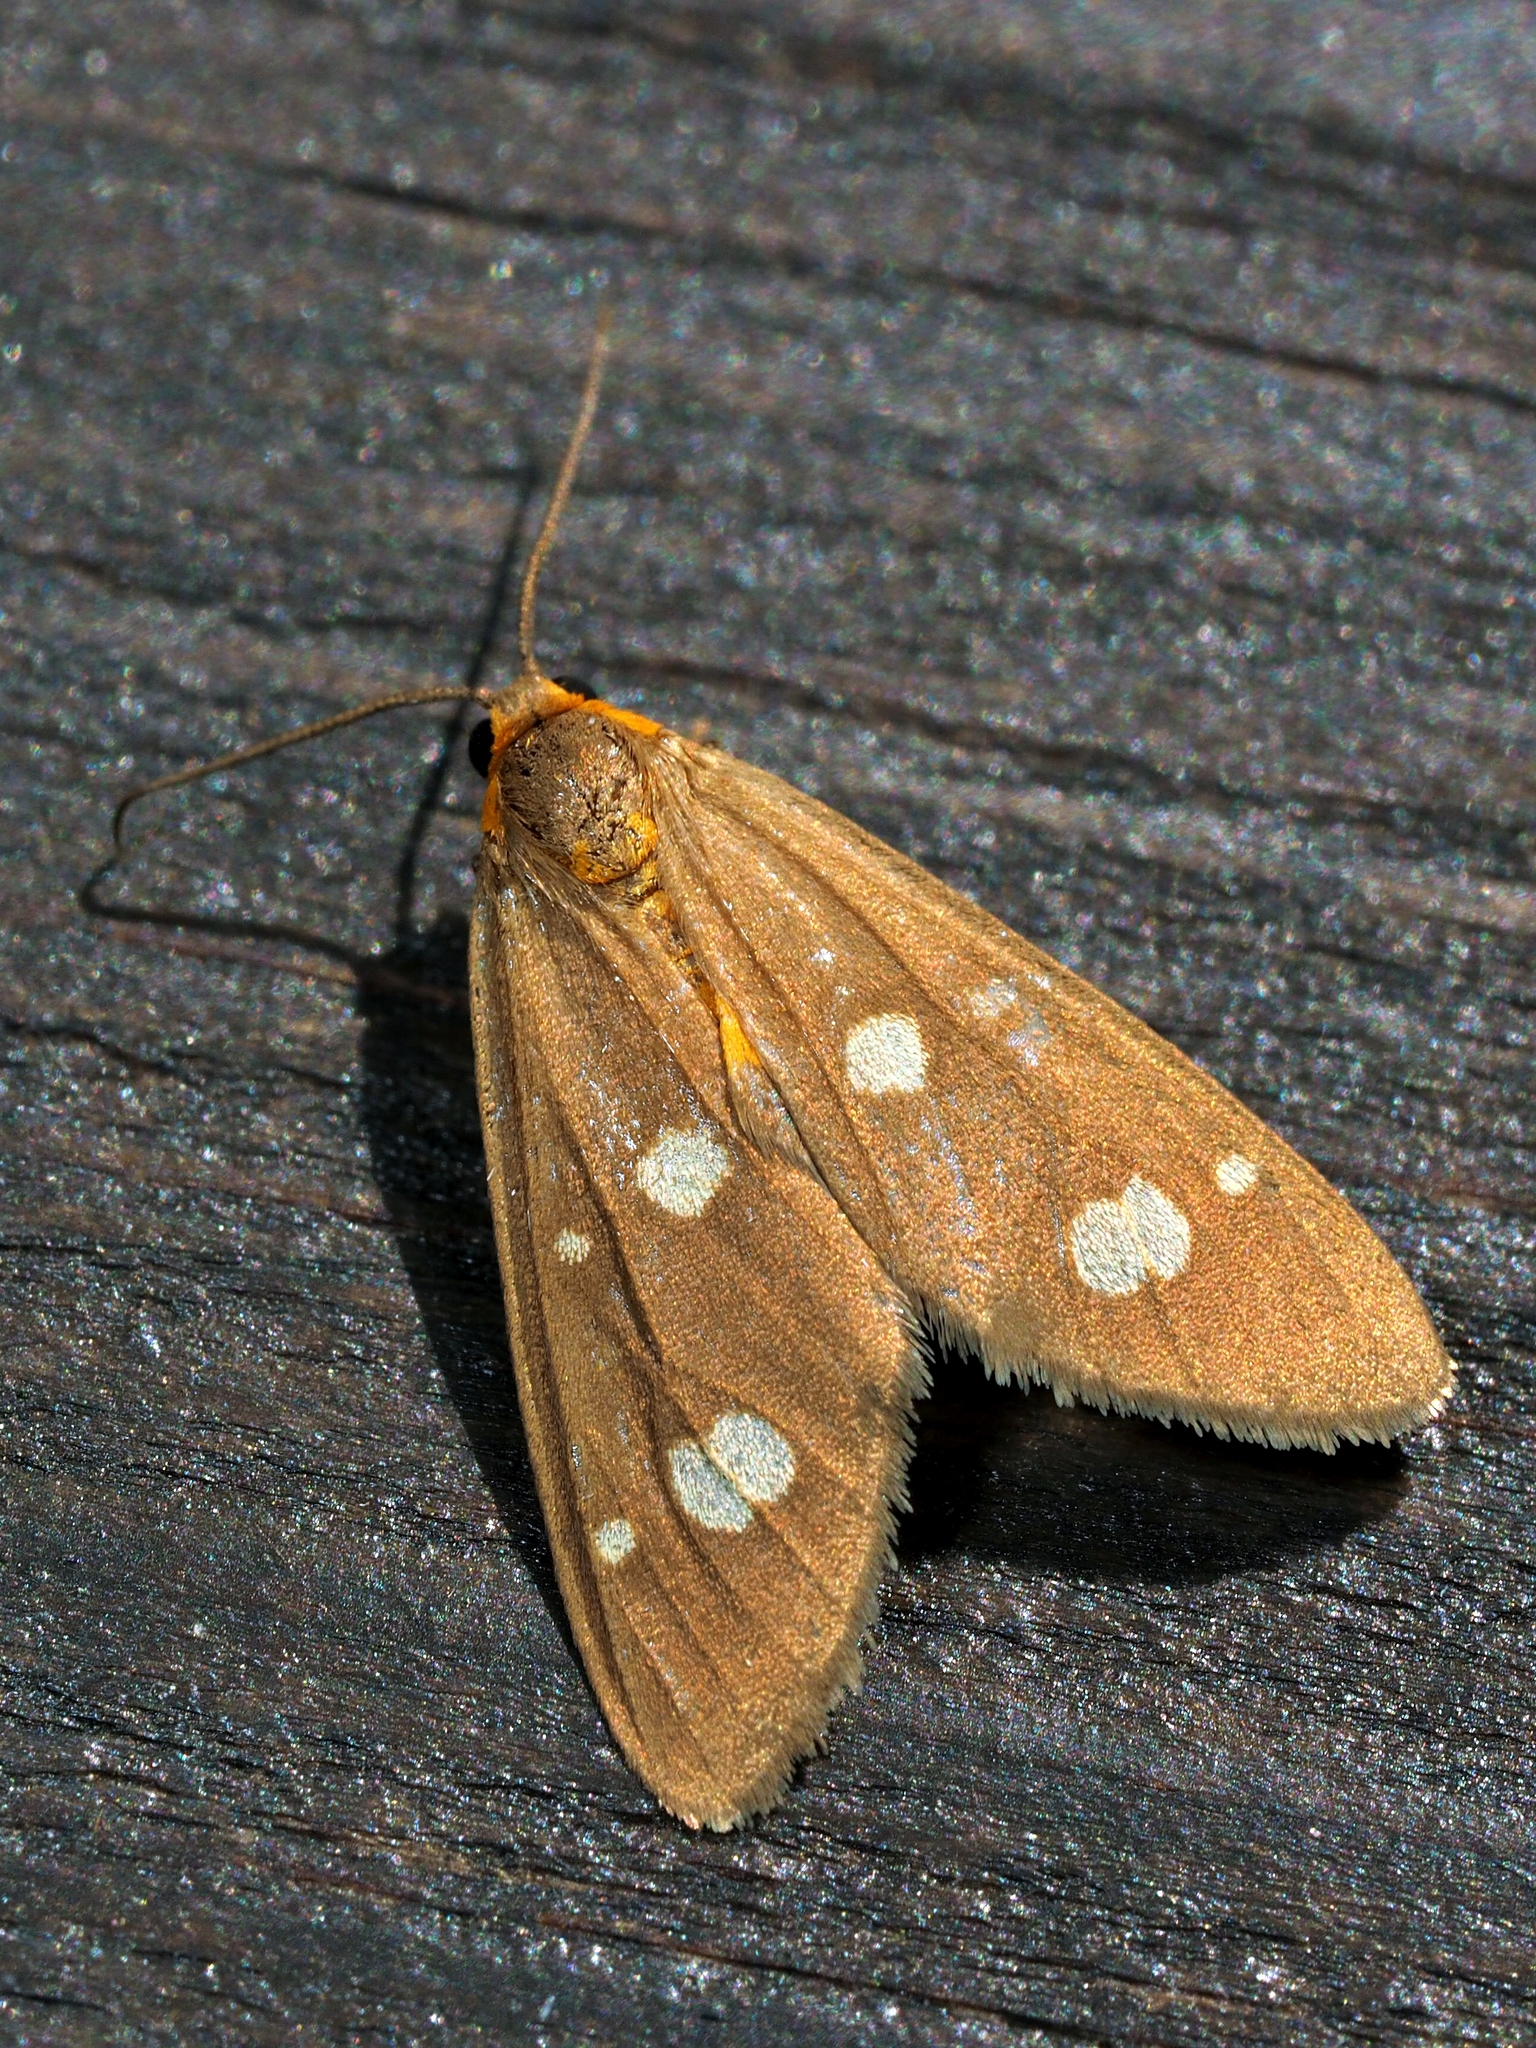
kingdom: Animalia
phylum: Arthropoda
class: Insecta
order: Lepidoptera
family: Erebidae
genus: Dysauxes
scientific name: Dysauxes punctata
